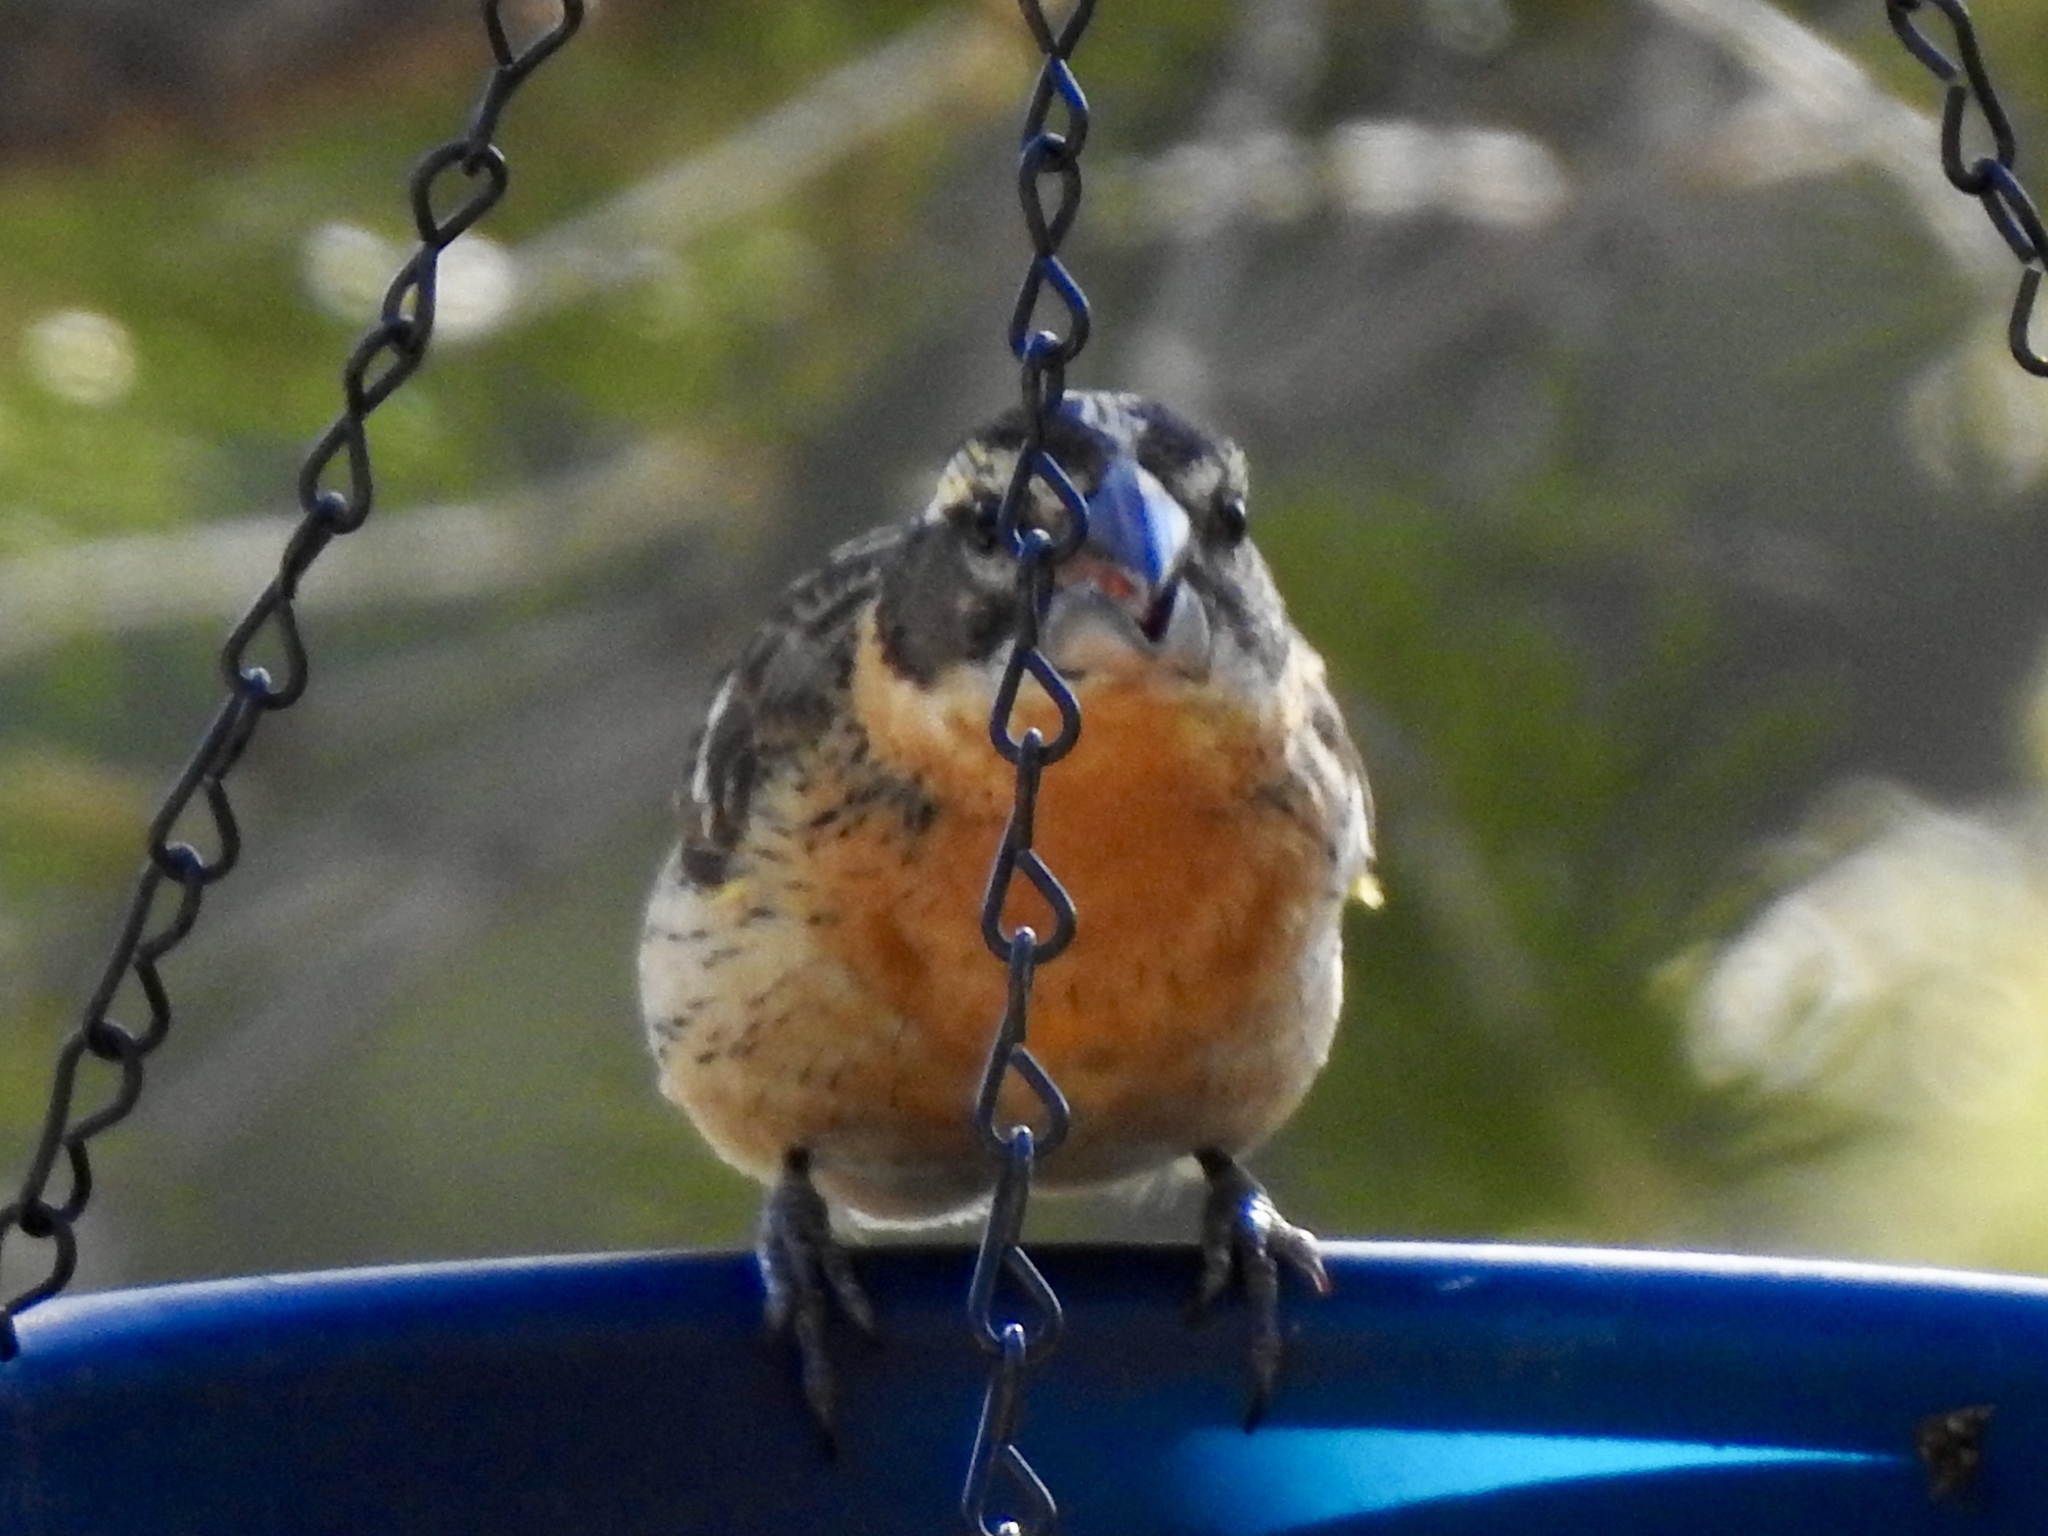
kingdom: Animalia
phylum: Chordata
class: Aves
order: Passeriformes
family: Cardinalidae
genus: Pheucticus
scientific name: Pheucticus melanocephalus
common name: Black-headed grosbeak
